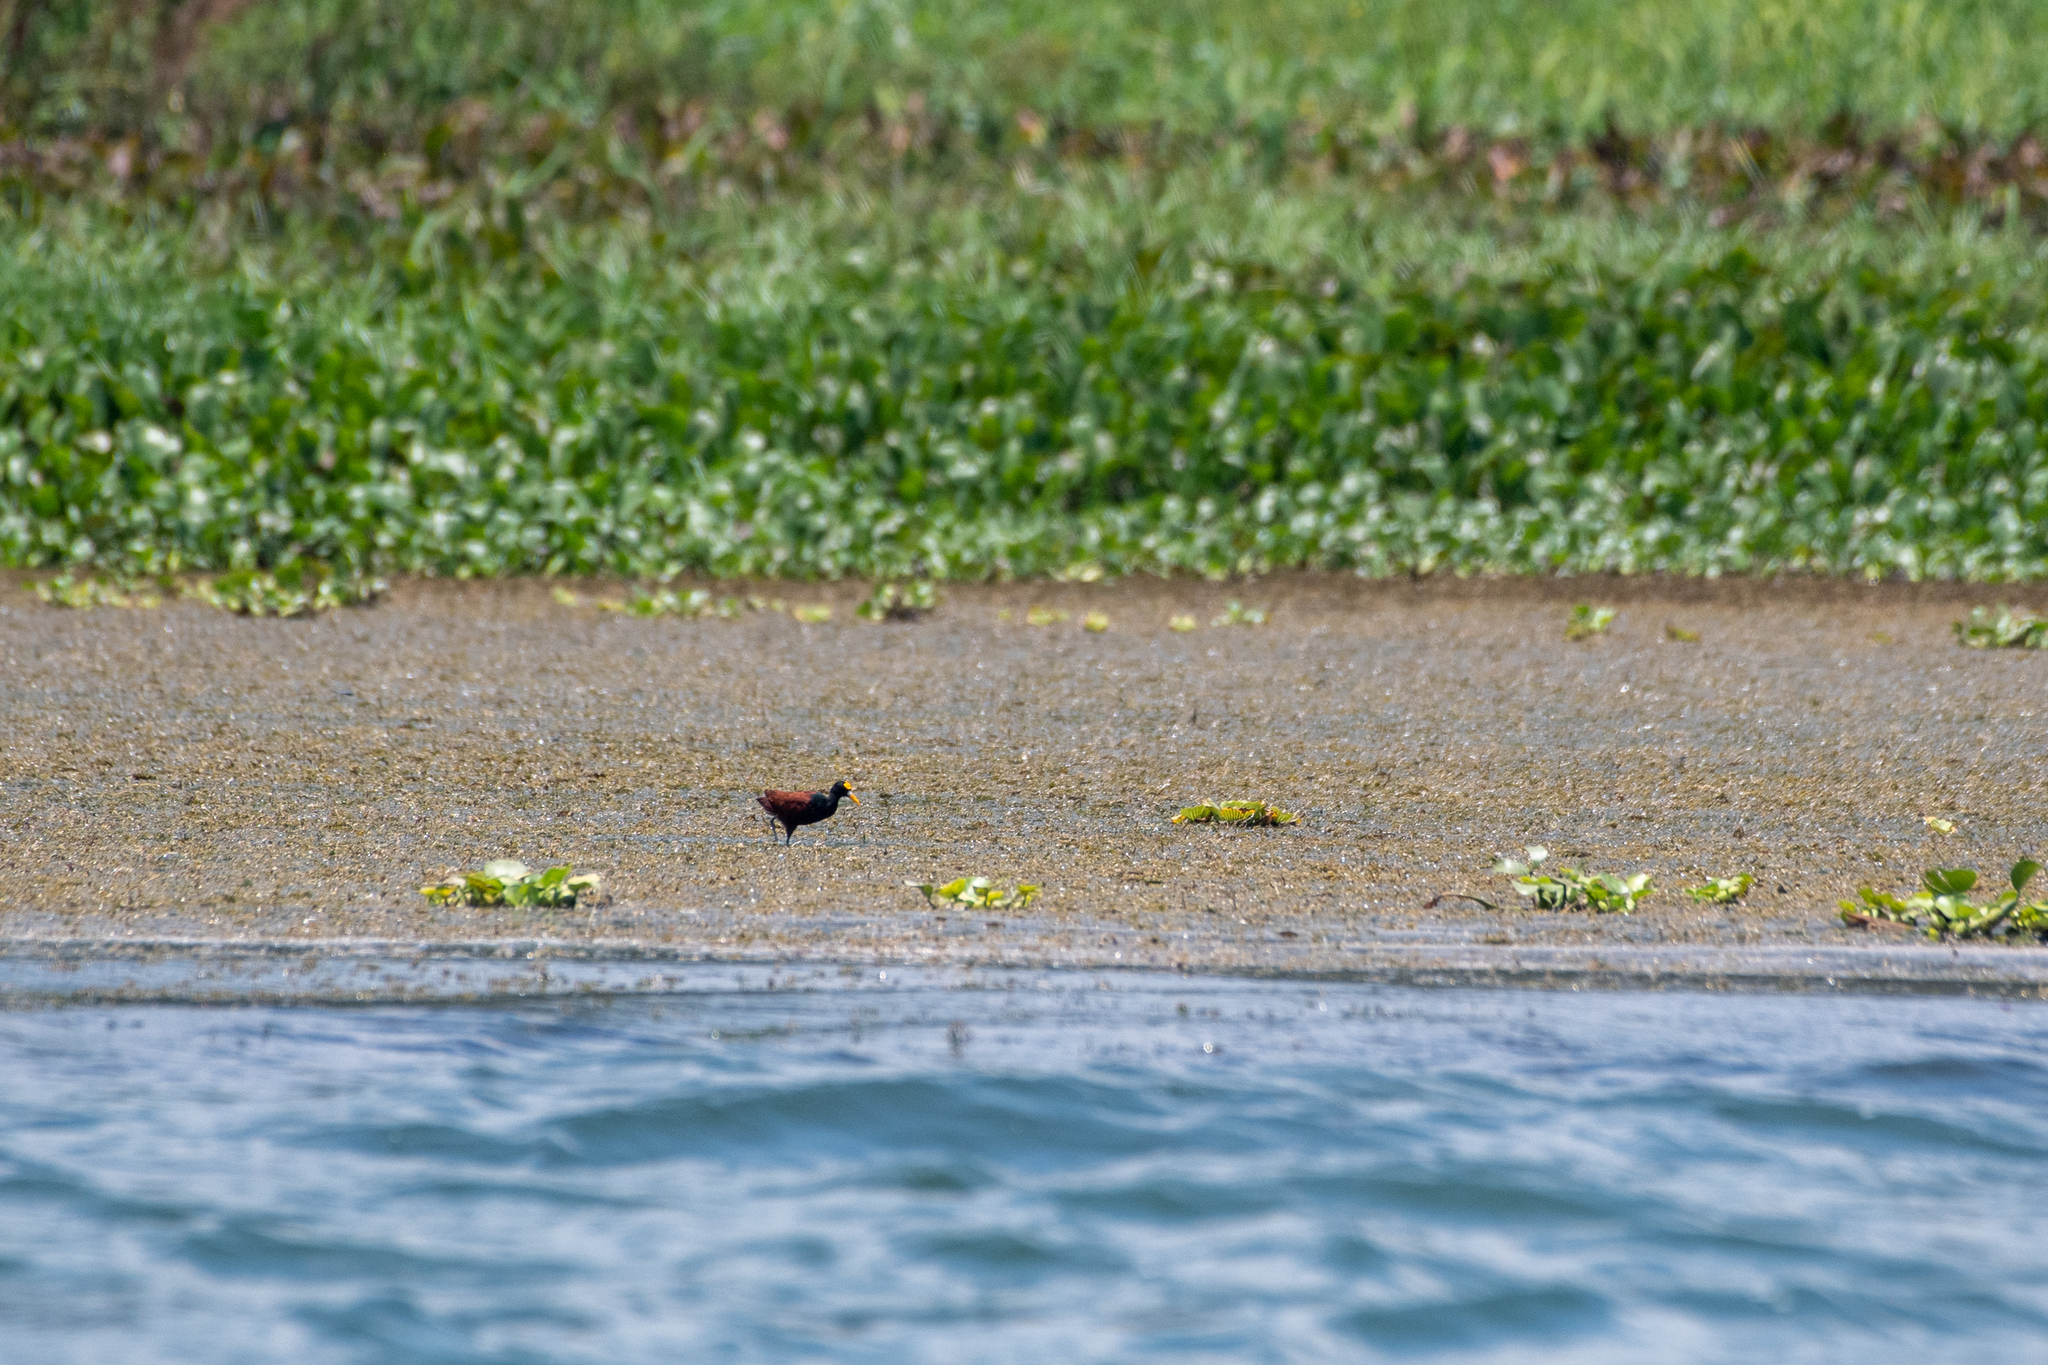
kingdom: Animalia
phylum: Chordata
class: Aves
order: Charadriiformes
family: Jacanidae
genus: Jacana
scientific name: Jacana spinosa
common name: Northern jacana
